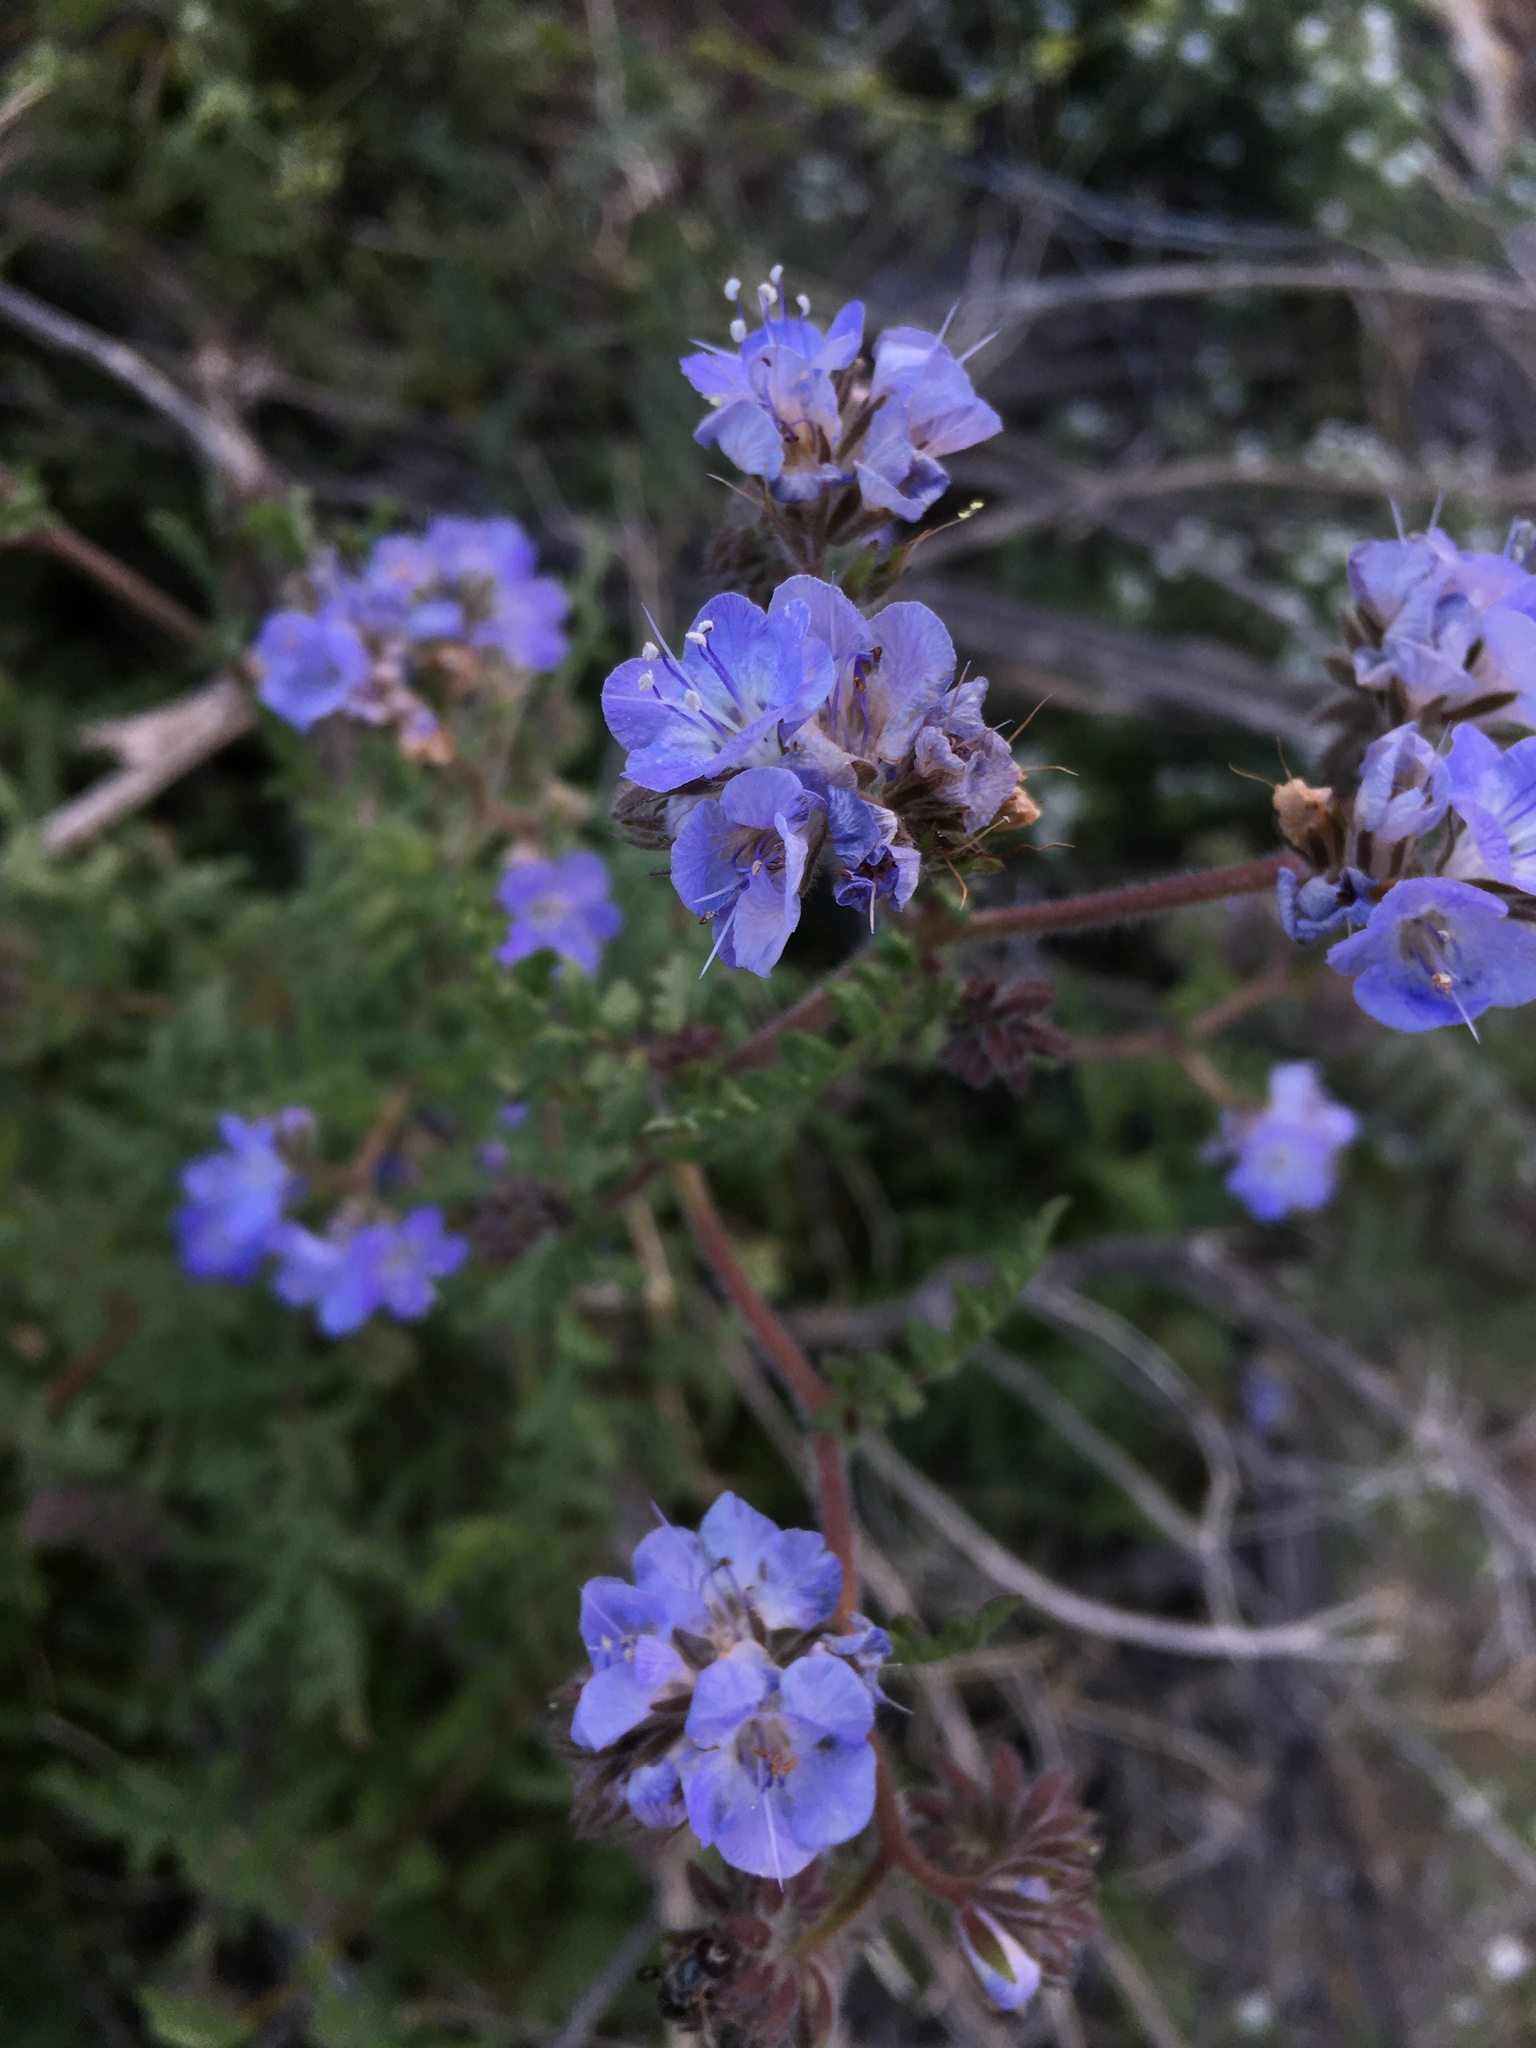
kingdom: Plantae
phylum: Tracheophyta
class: Magnoliopsida
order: Boraginales
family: Hydrophyllaceae
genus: Phacelia
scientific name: Phacelia distans
